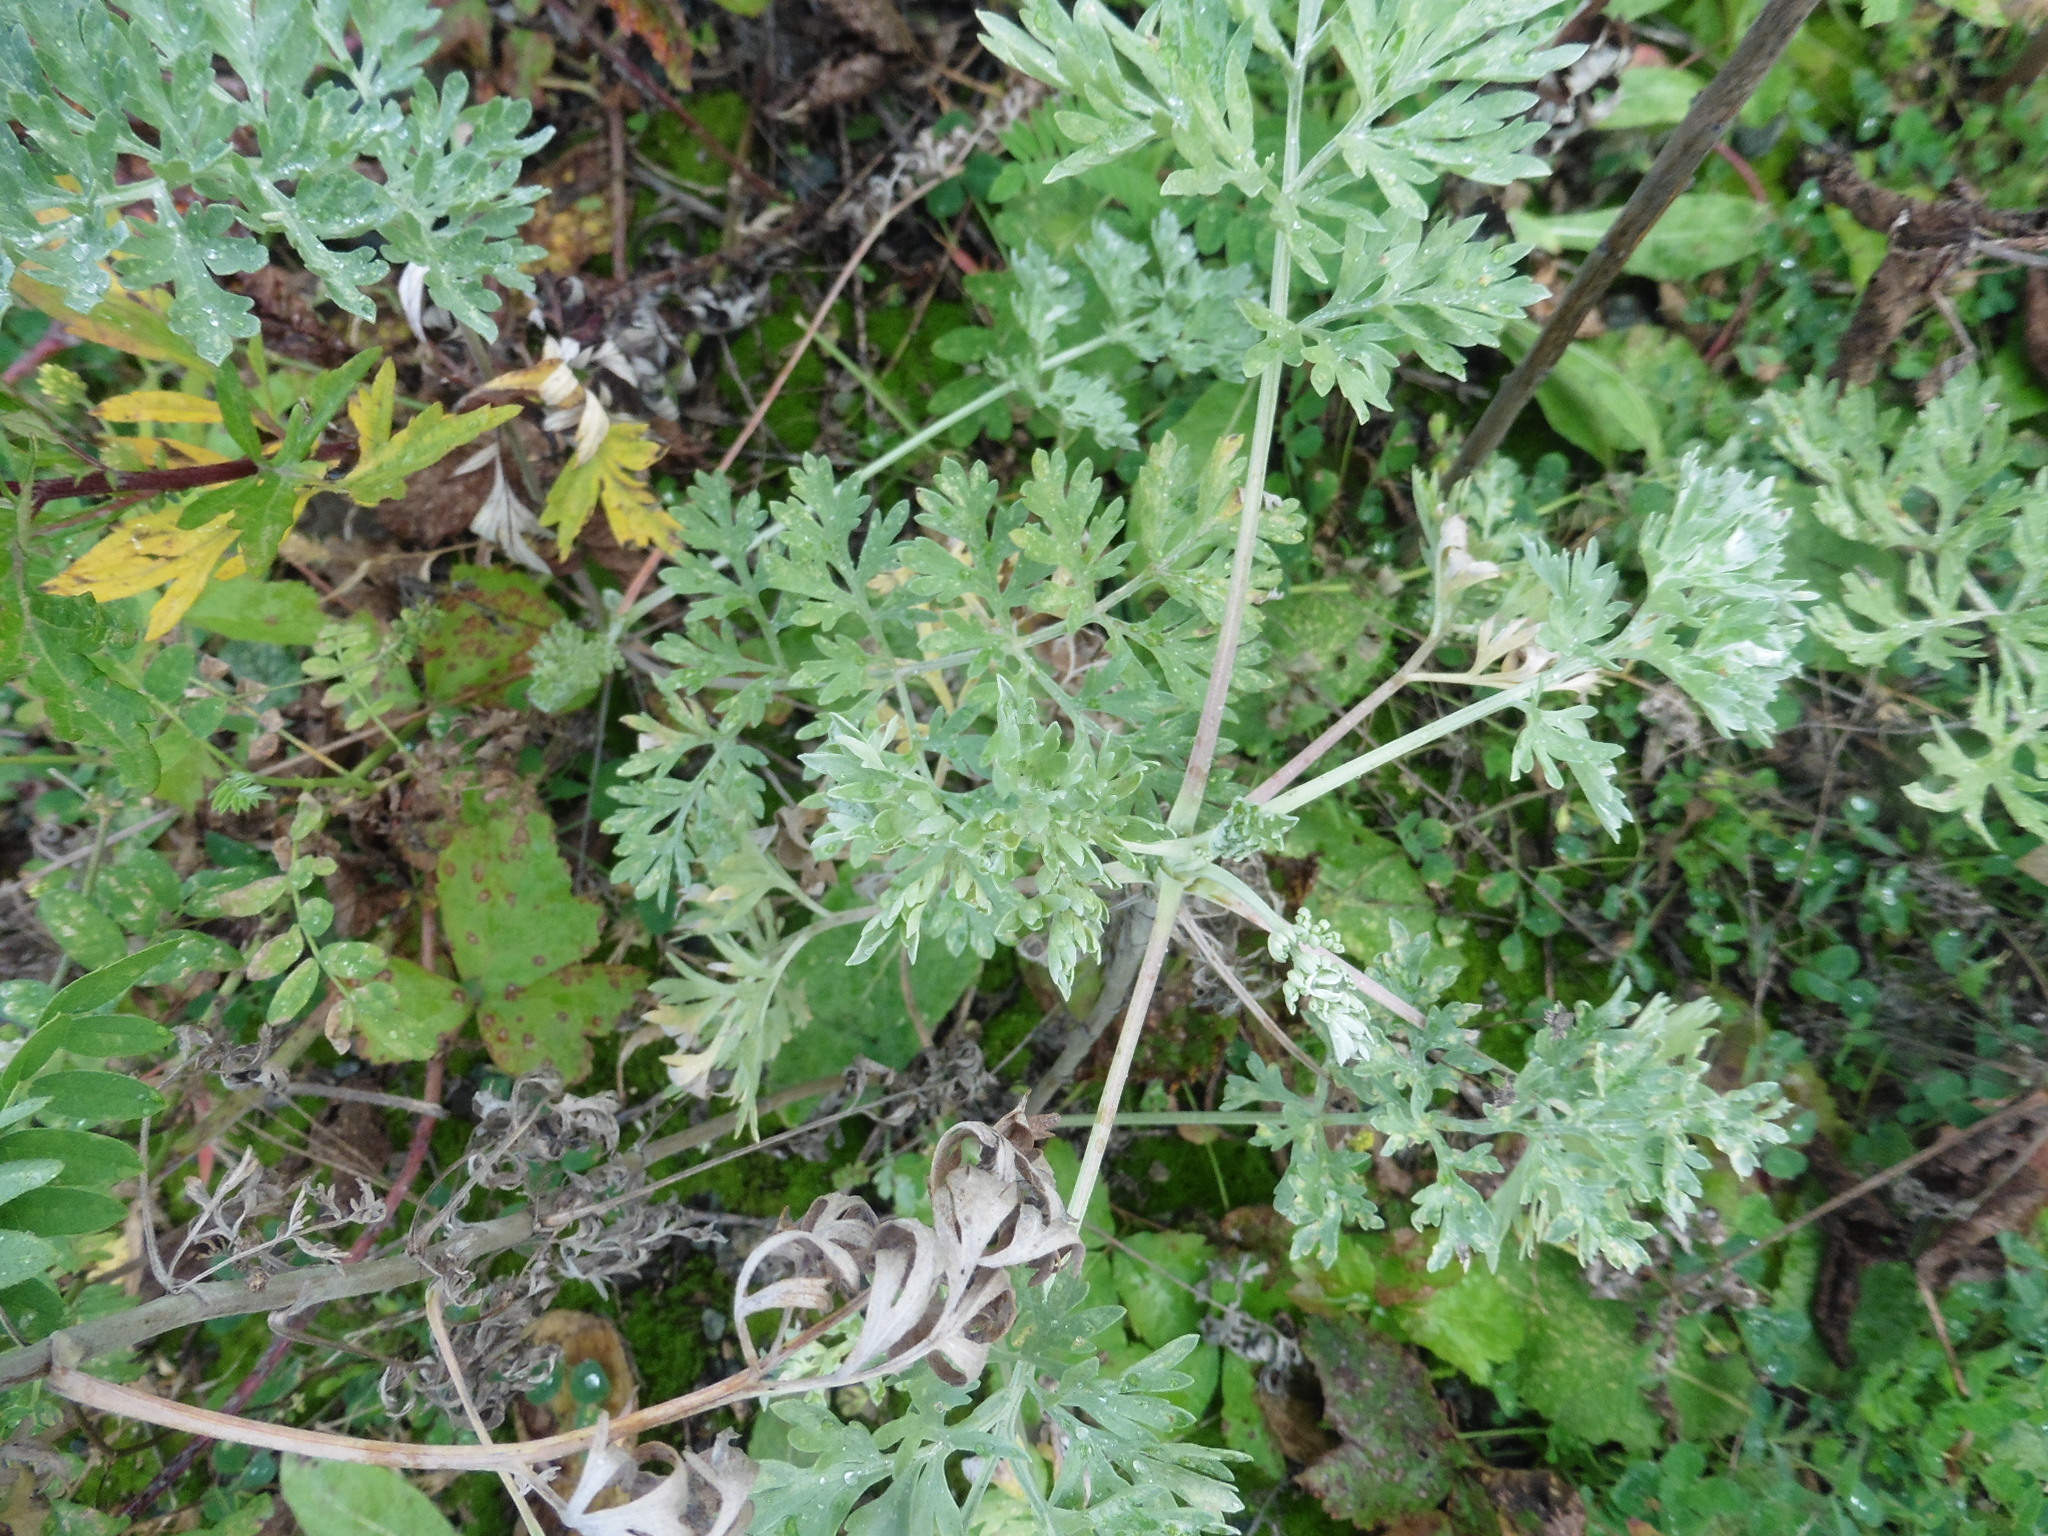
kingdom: Plantae
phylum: Tracheophyta
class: Magnoliopsida
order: Asterales
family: Asteraceae
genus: Artemisia
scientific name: Artemisia absinthium
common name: Wormwood
